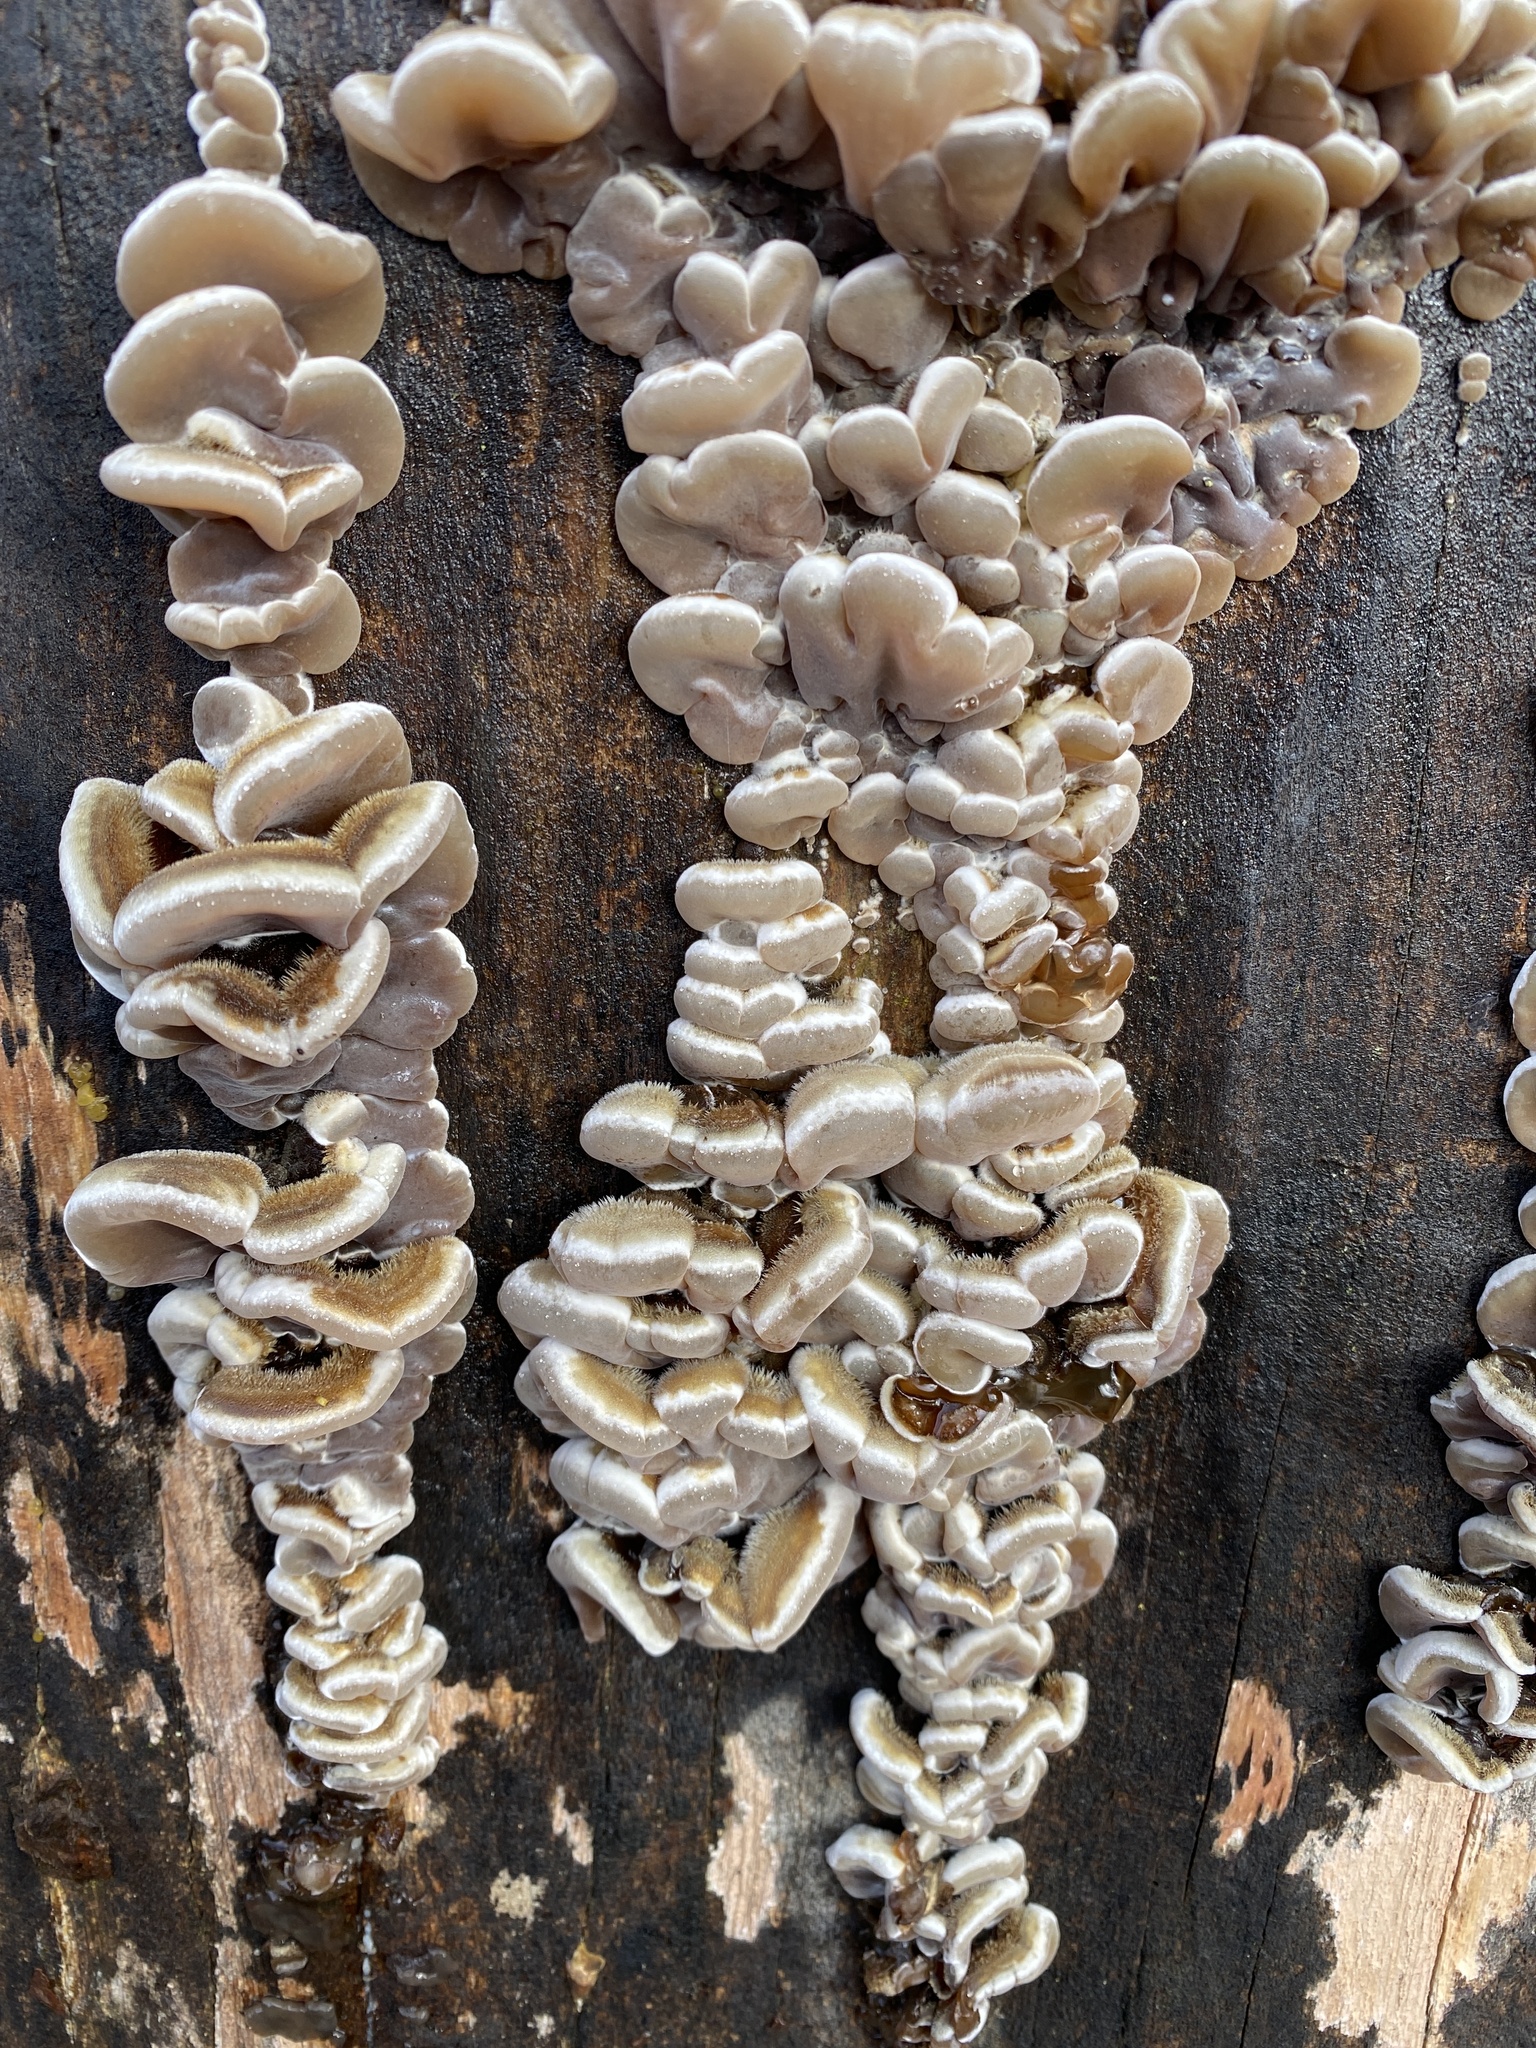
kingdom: Fungi
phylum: Basidiomycota
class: Agaricomycetes
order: Auriculariales
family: Auriculariaceae
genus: Auricularia
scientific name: Auricularia mesenterica
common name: Tripe fungus
